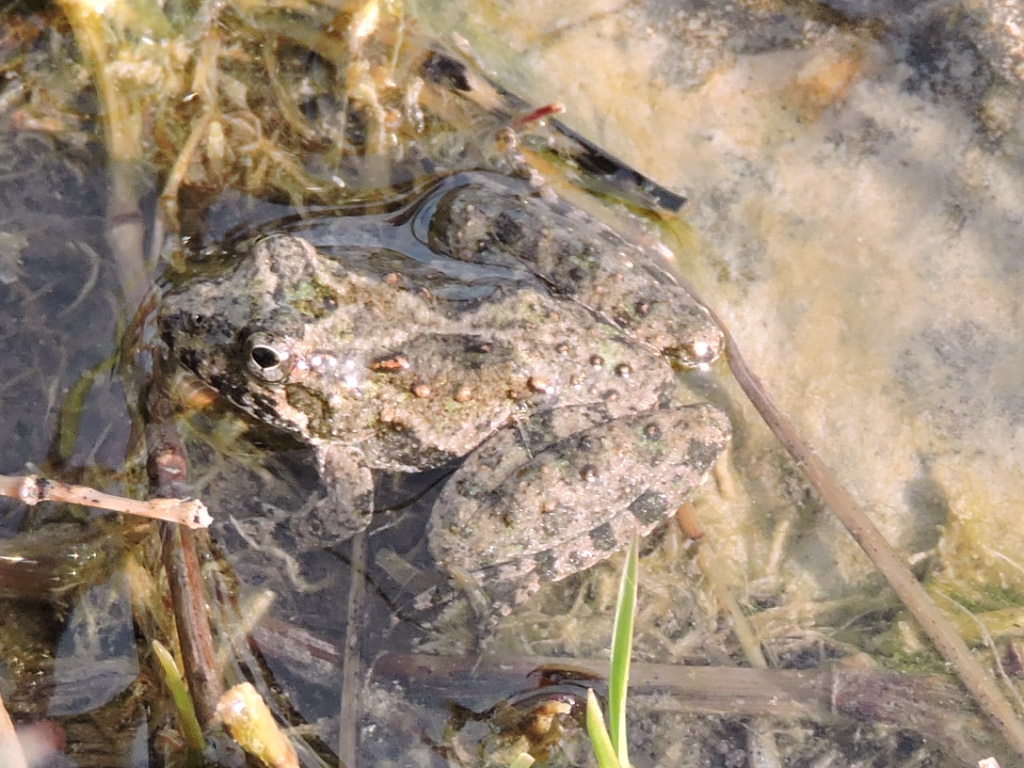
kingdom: Animalia
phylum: Chordata
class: Amphibia
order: Anura
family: Hylidae
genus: Acris
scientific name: Acris blanchardi
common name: Blanchard's cricket frog
